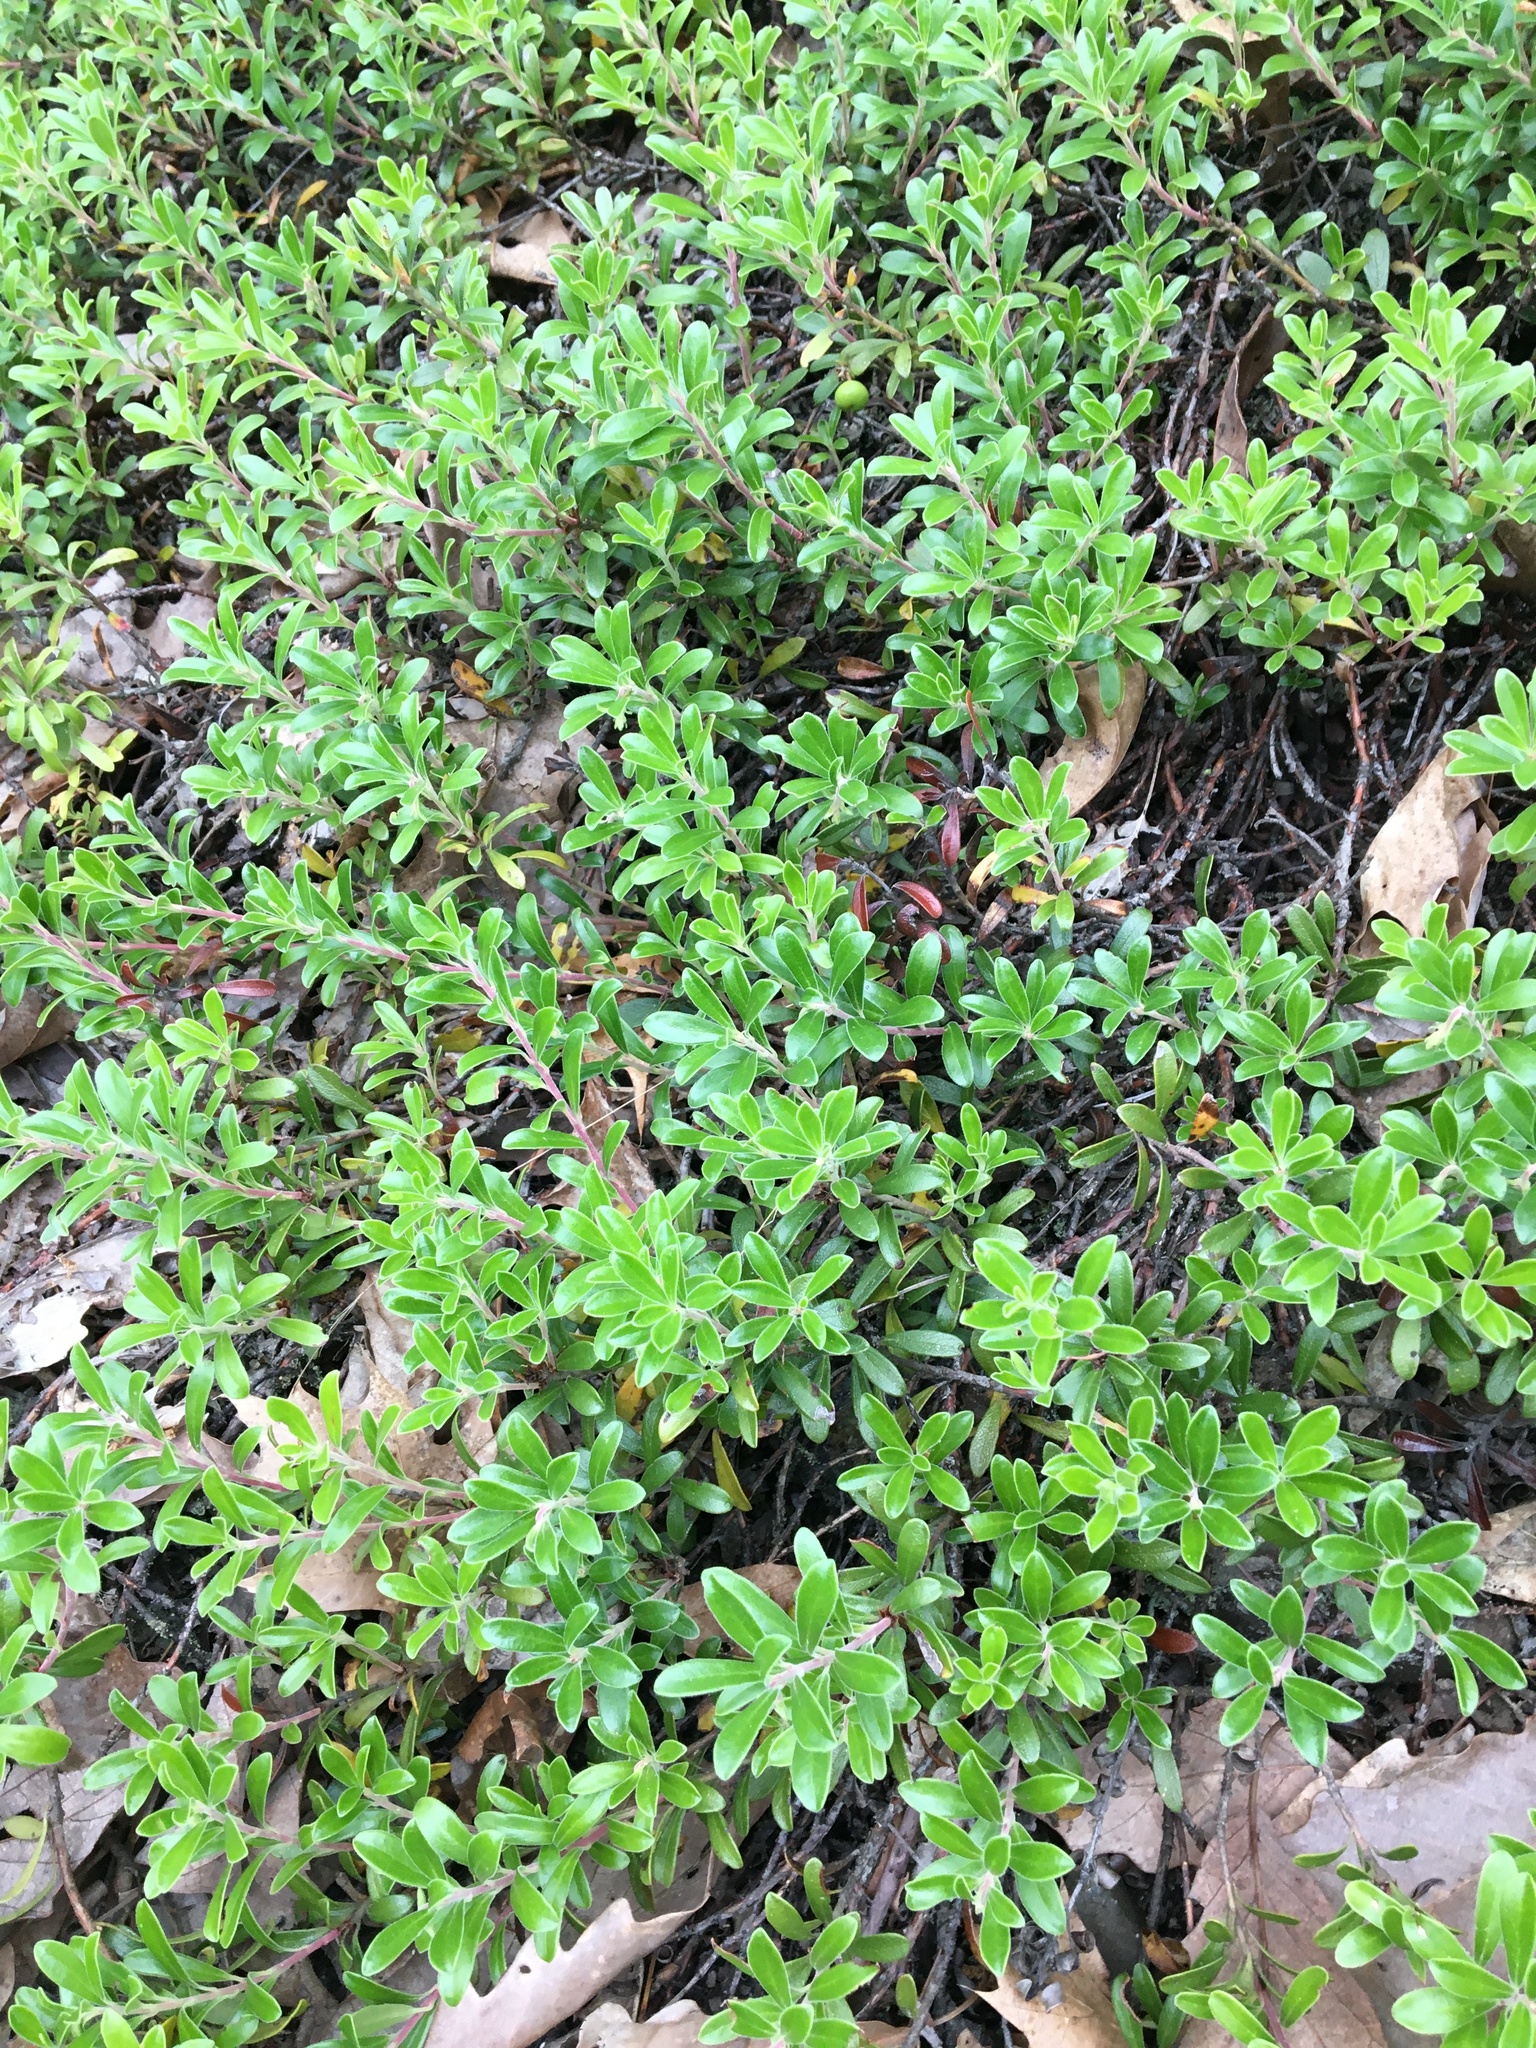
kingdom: Plantae
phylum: Tracheophyta
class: Magnoliopsida
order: Ericales
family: Ericaceae
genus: Arctostaphylos
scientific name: Arctostaphylos uva-ursi
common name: Bearberry
